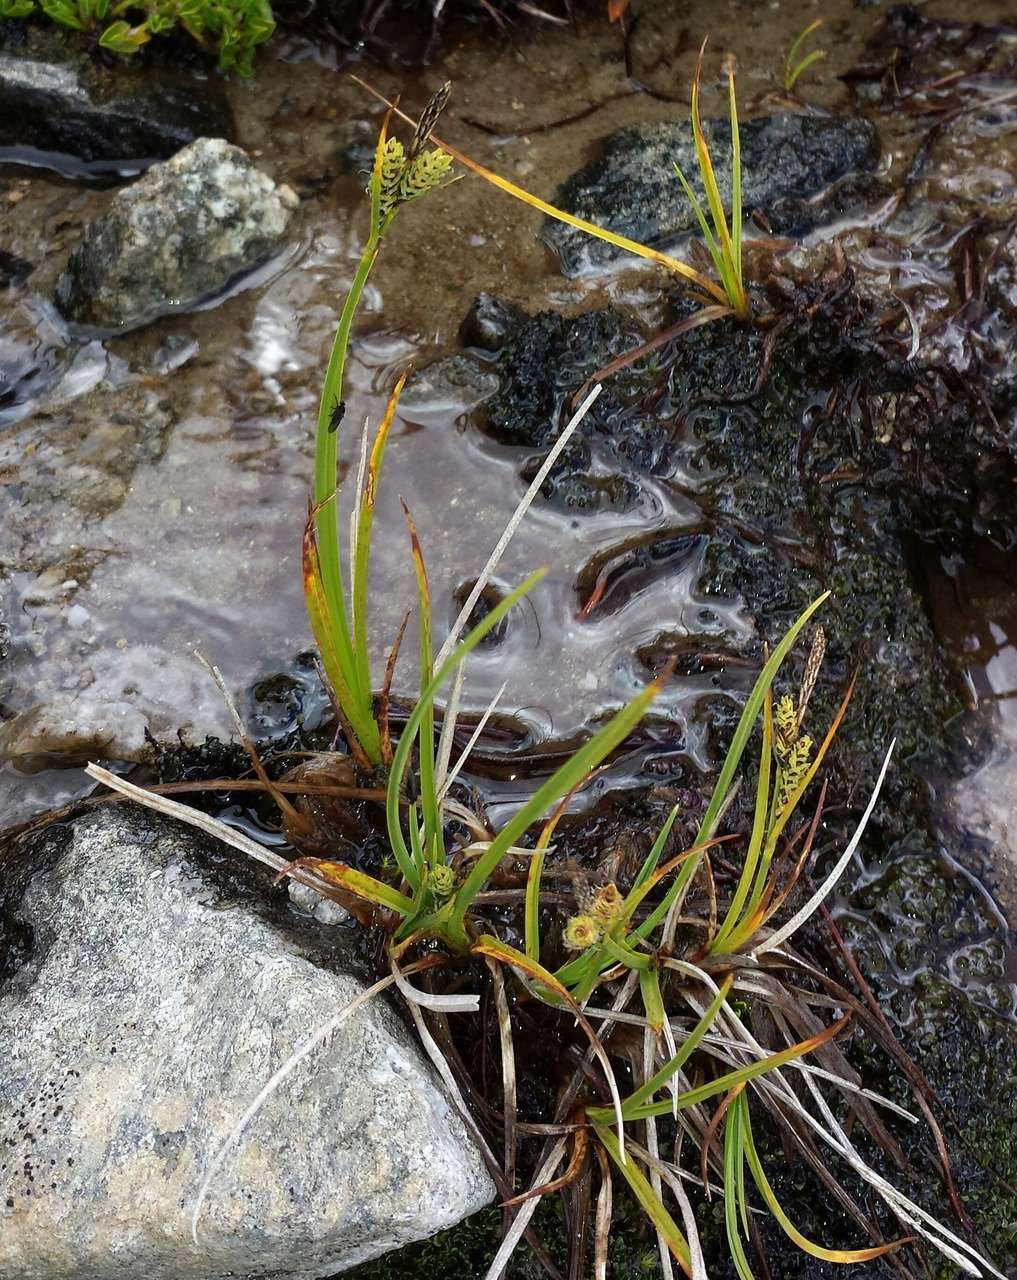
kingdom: Plantae
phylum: Tracheophyta
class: Liliopsida
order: Poales
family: Cyperaceae
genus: Carex
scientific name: Carex hypandra
